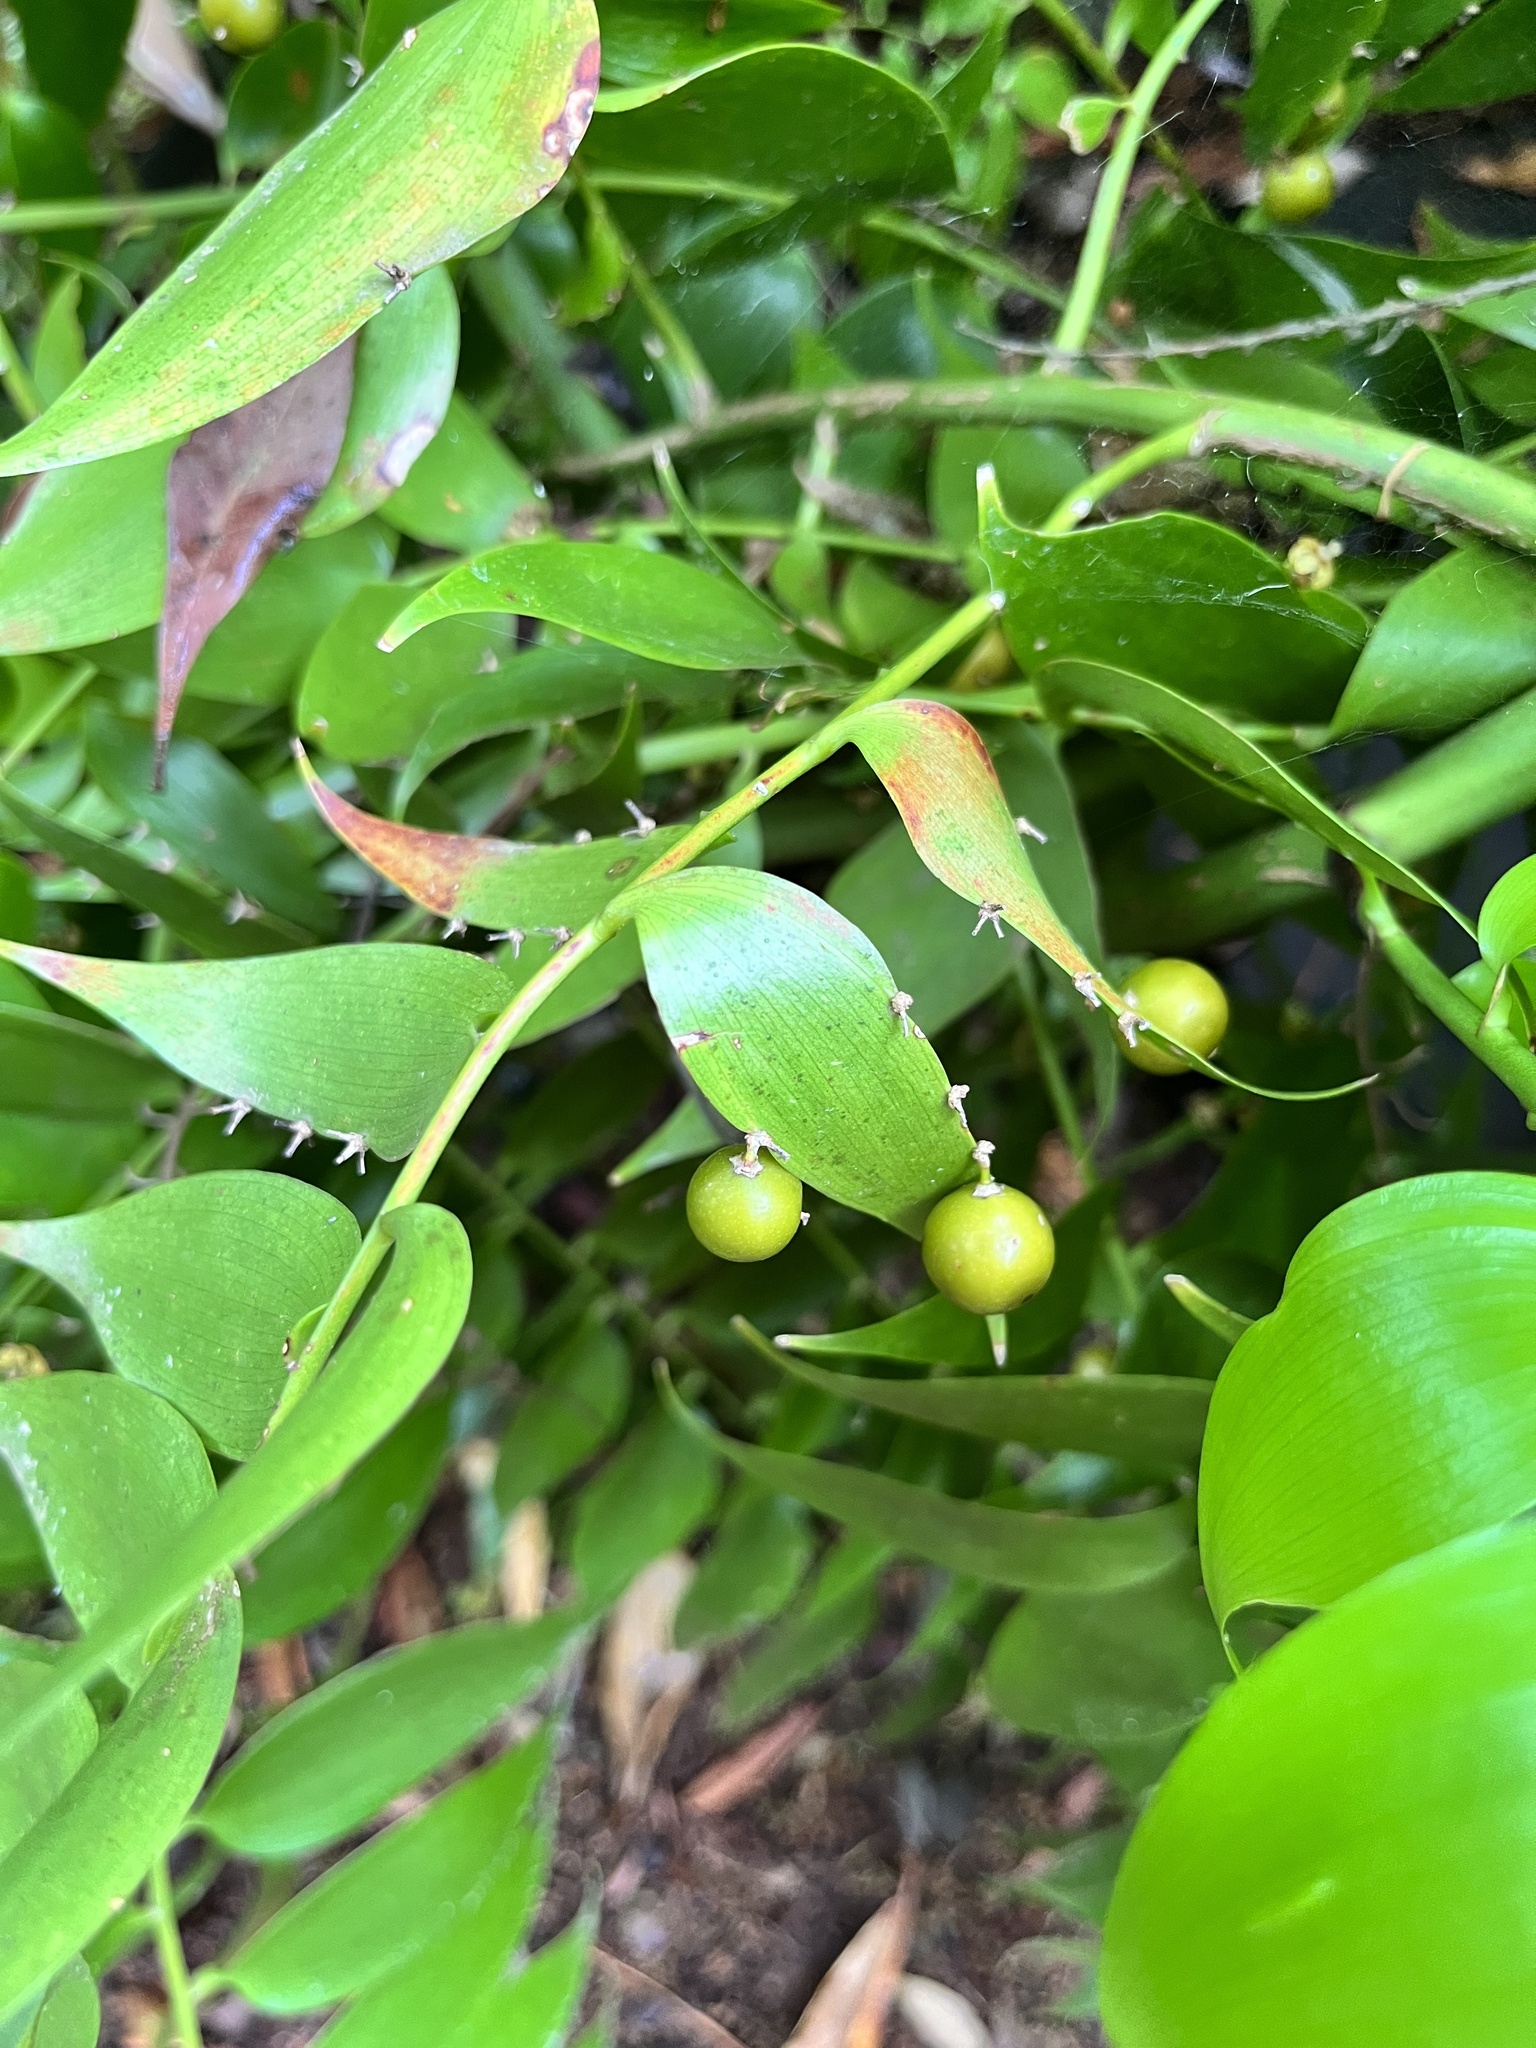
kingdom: Plantae
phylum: Tracheophyta
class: Liliopsida
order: Asparagales
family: Asparagaceae
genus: Semele
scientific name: Semele androgyna
